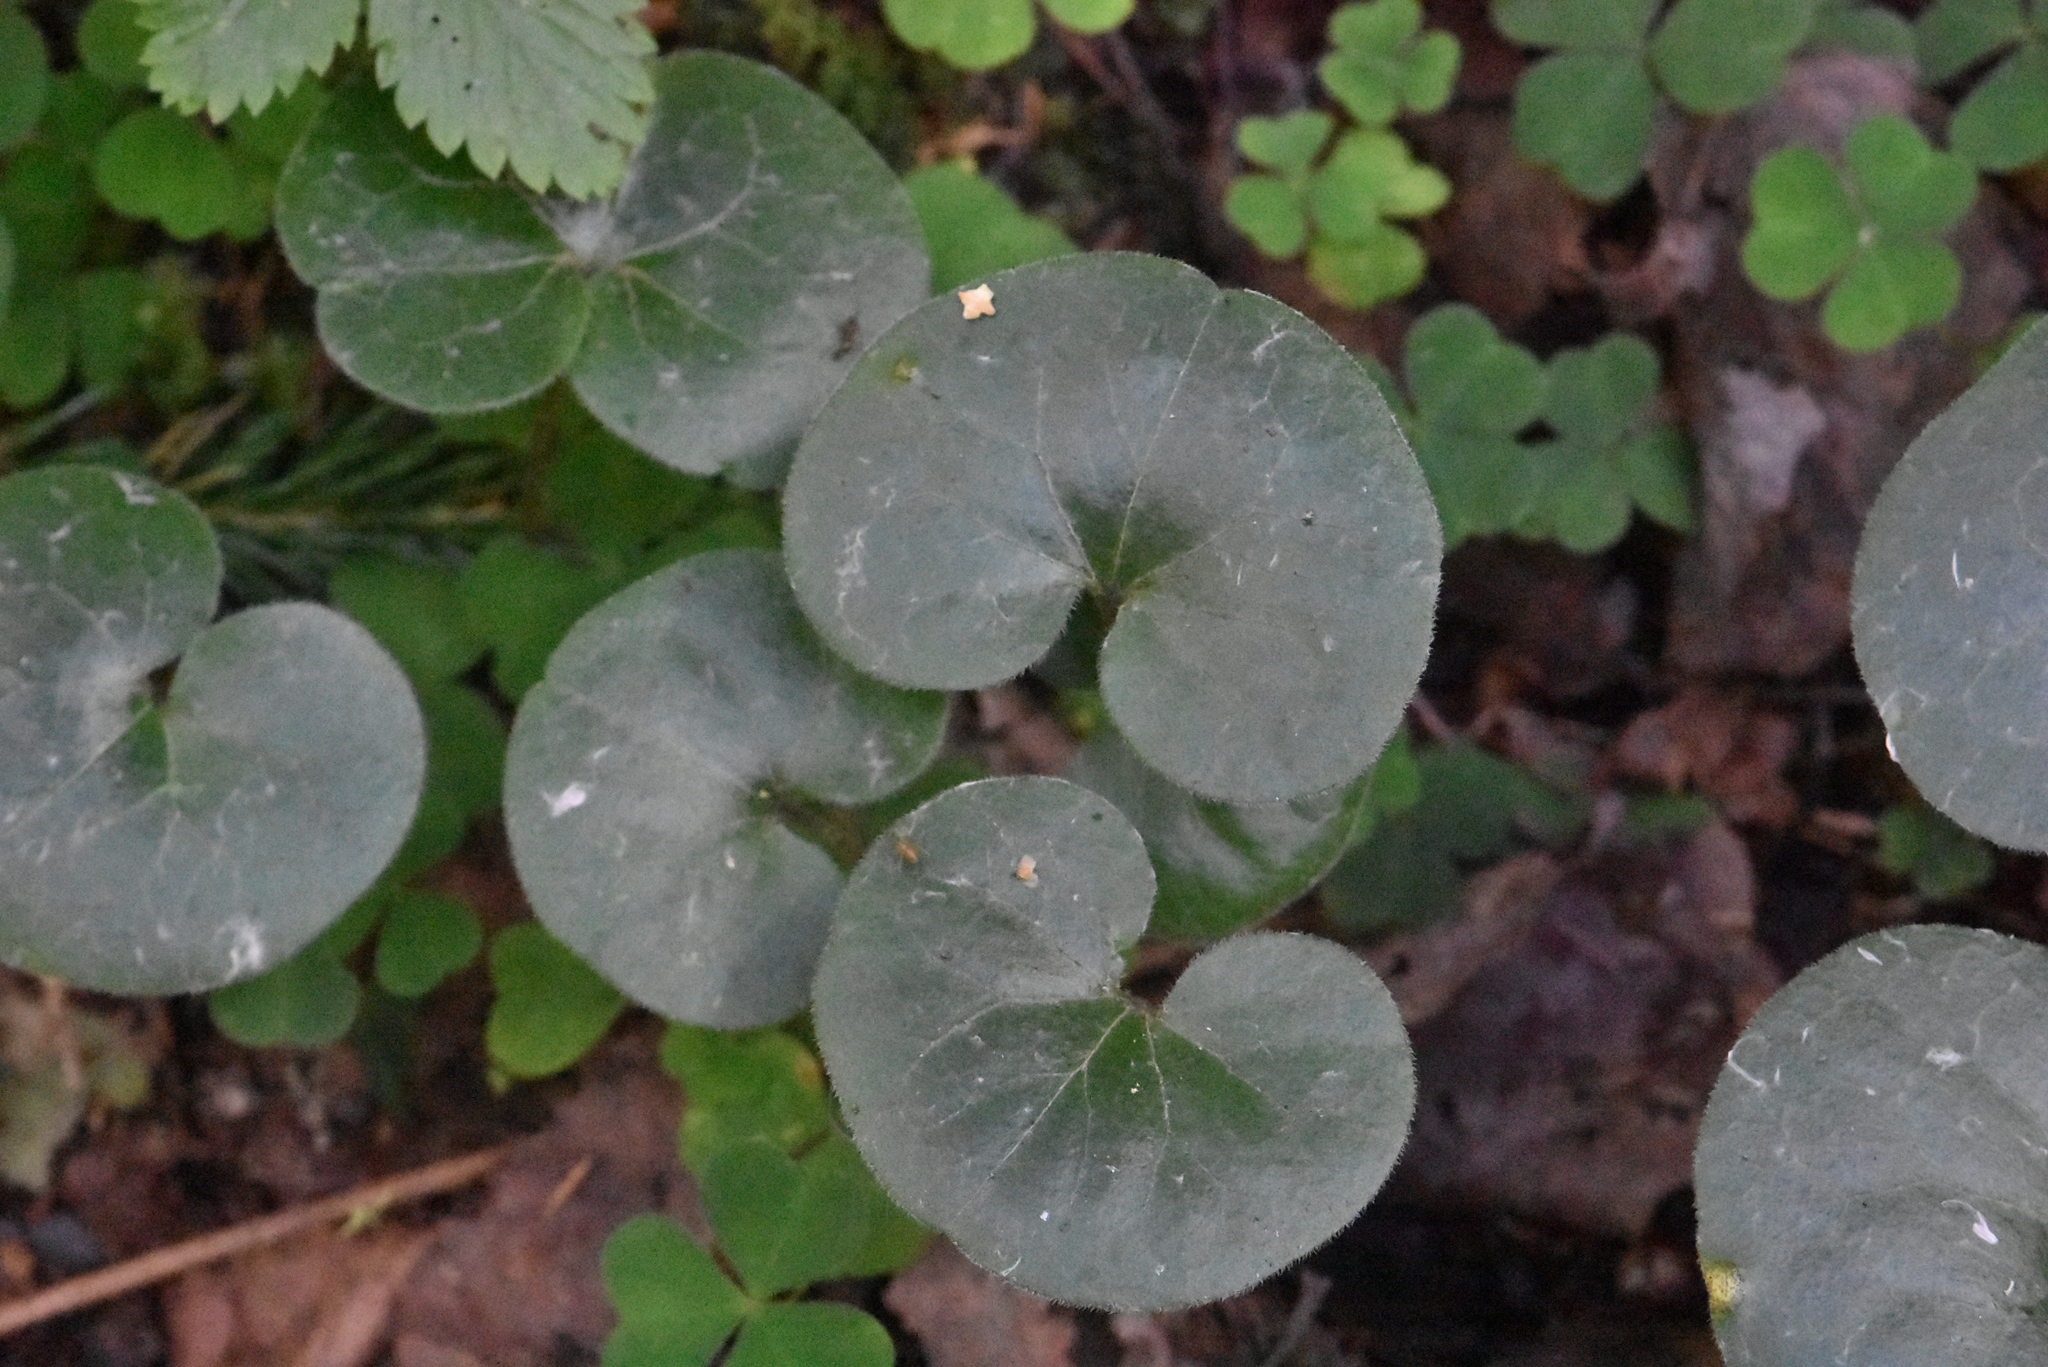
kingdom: Plantae
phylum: Tracheophyta
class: Magnoliopsida
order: Piperales
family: Aristolochiaceae
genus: Asarum
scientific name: Asarum europaeum
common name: Asarabacca
